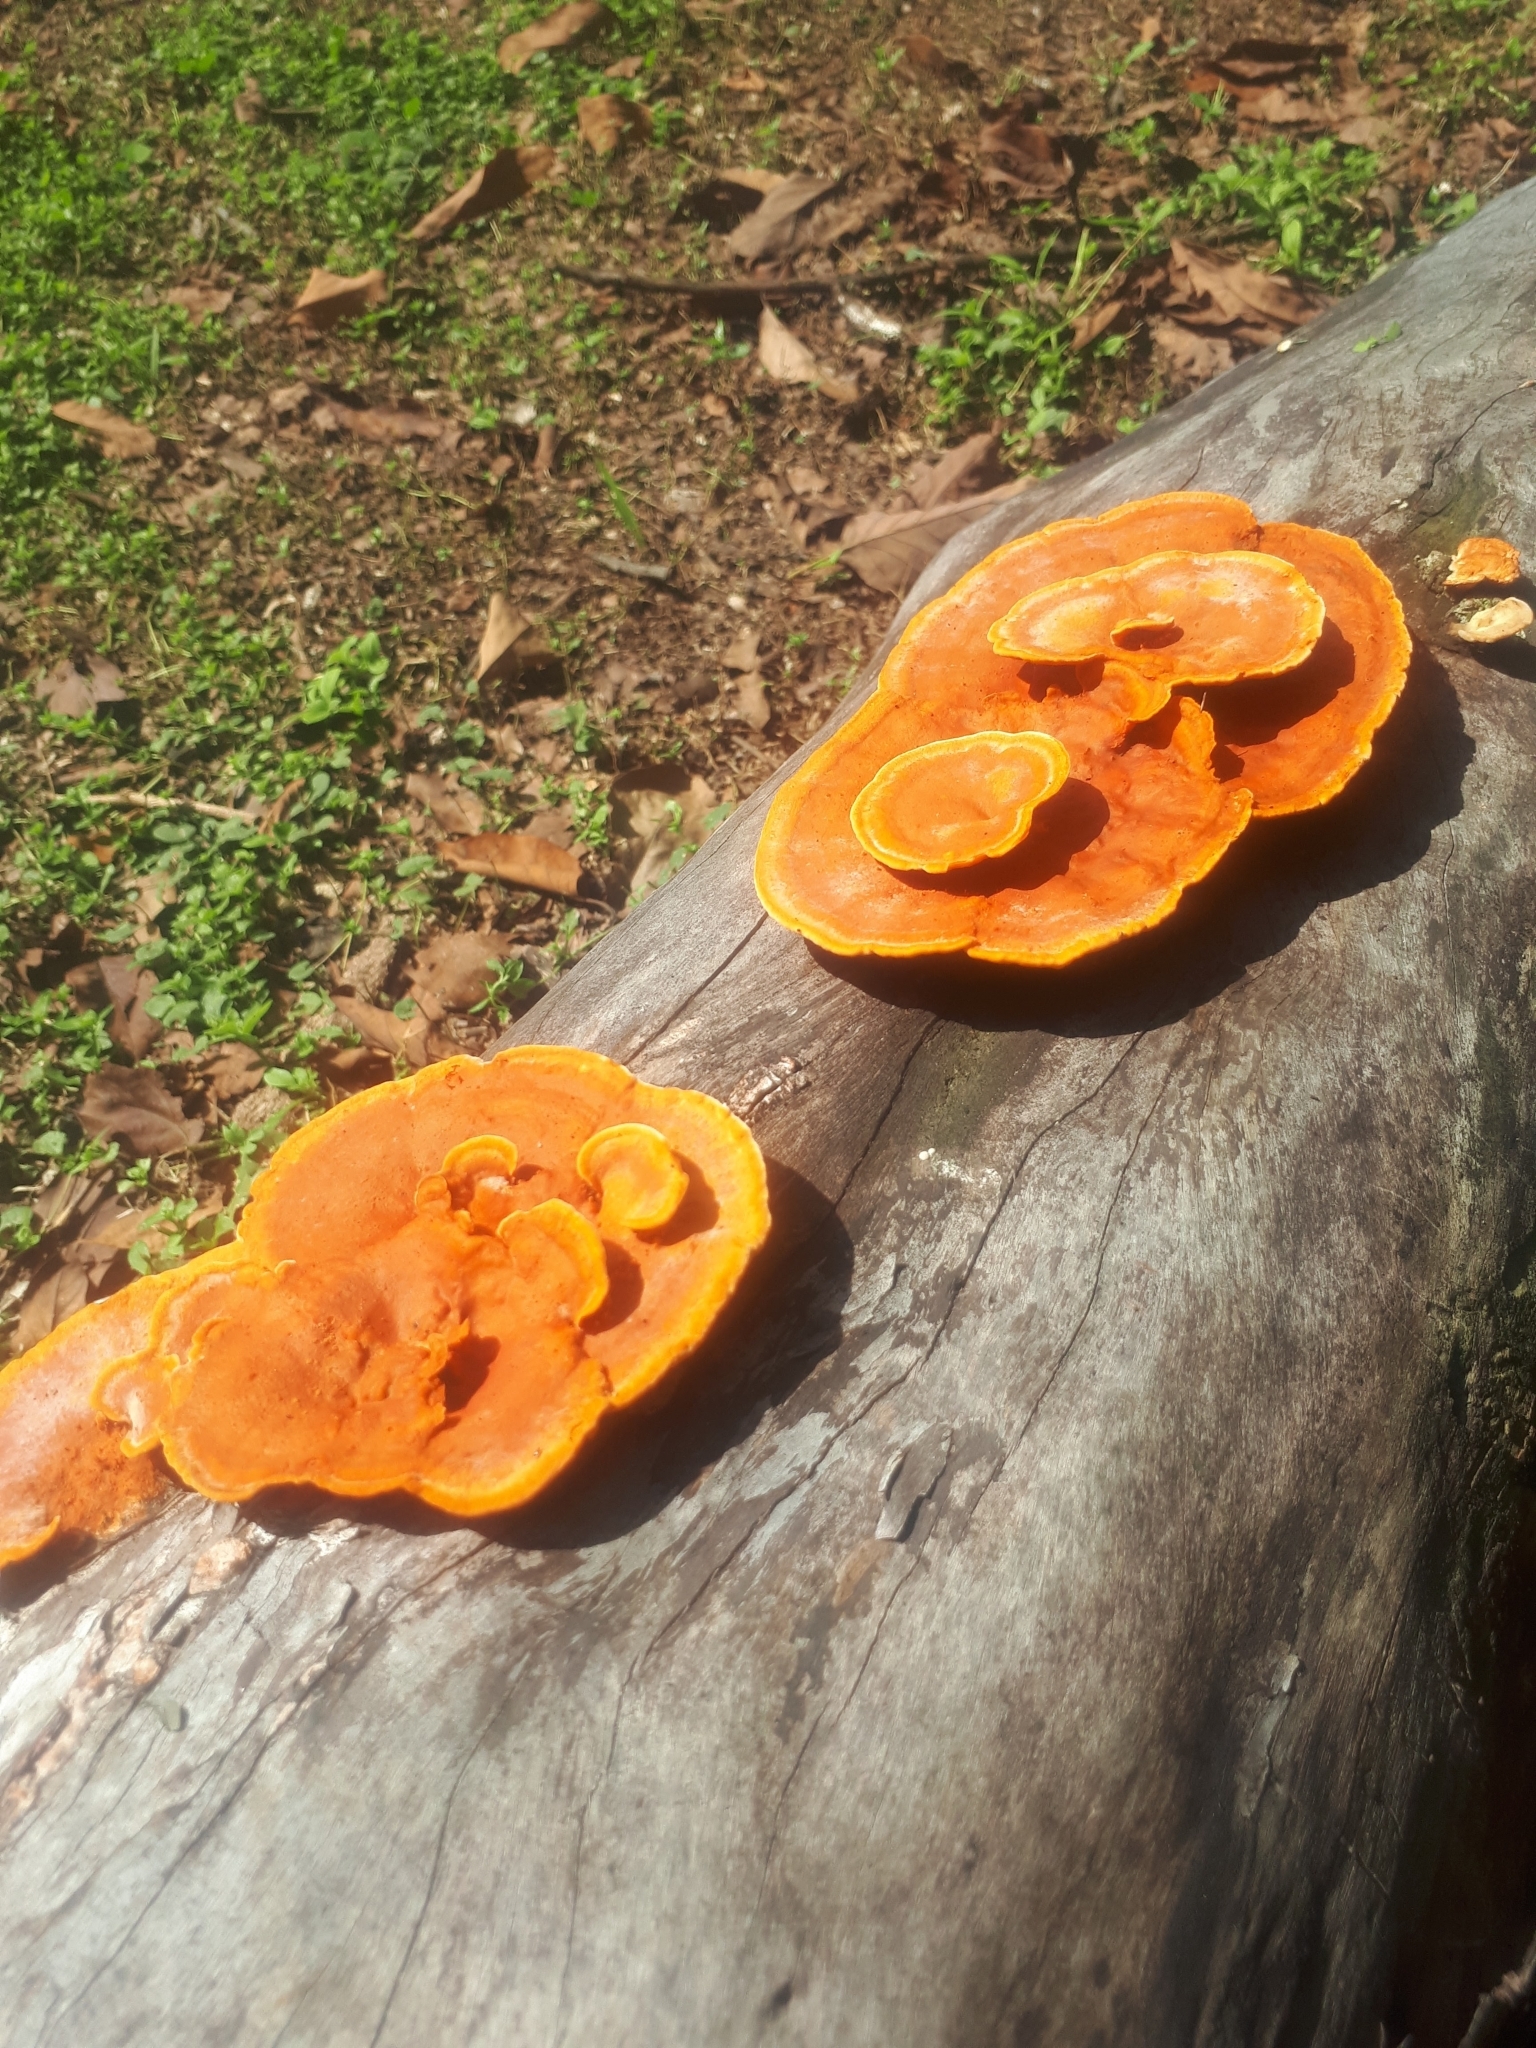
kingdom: Fungi
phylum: Basidiomycota
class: Agaricomycetes
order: Polyporales
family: Polyporaceae
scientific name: Polyporaceae
